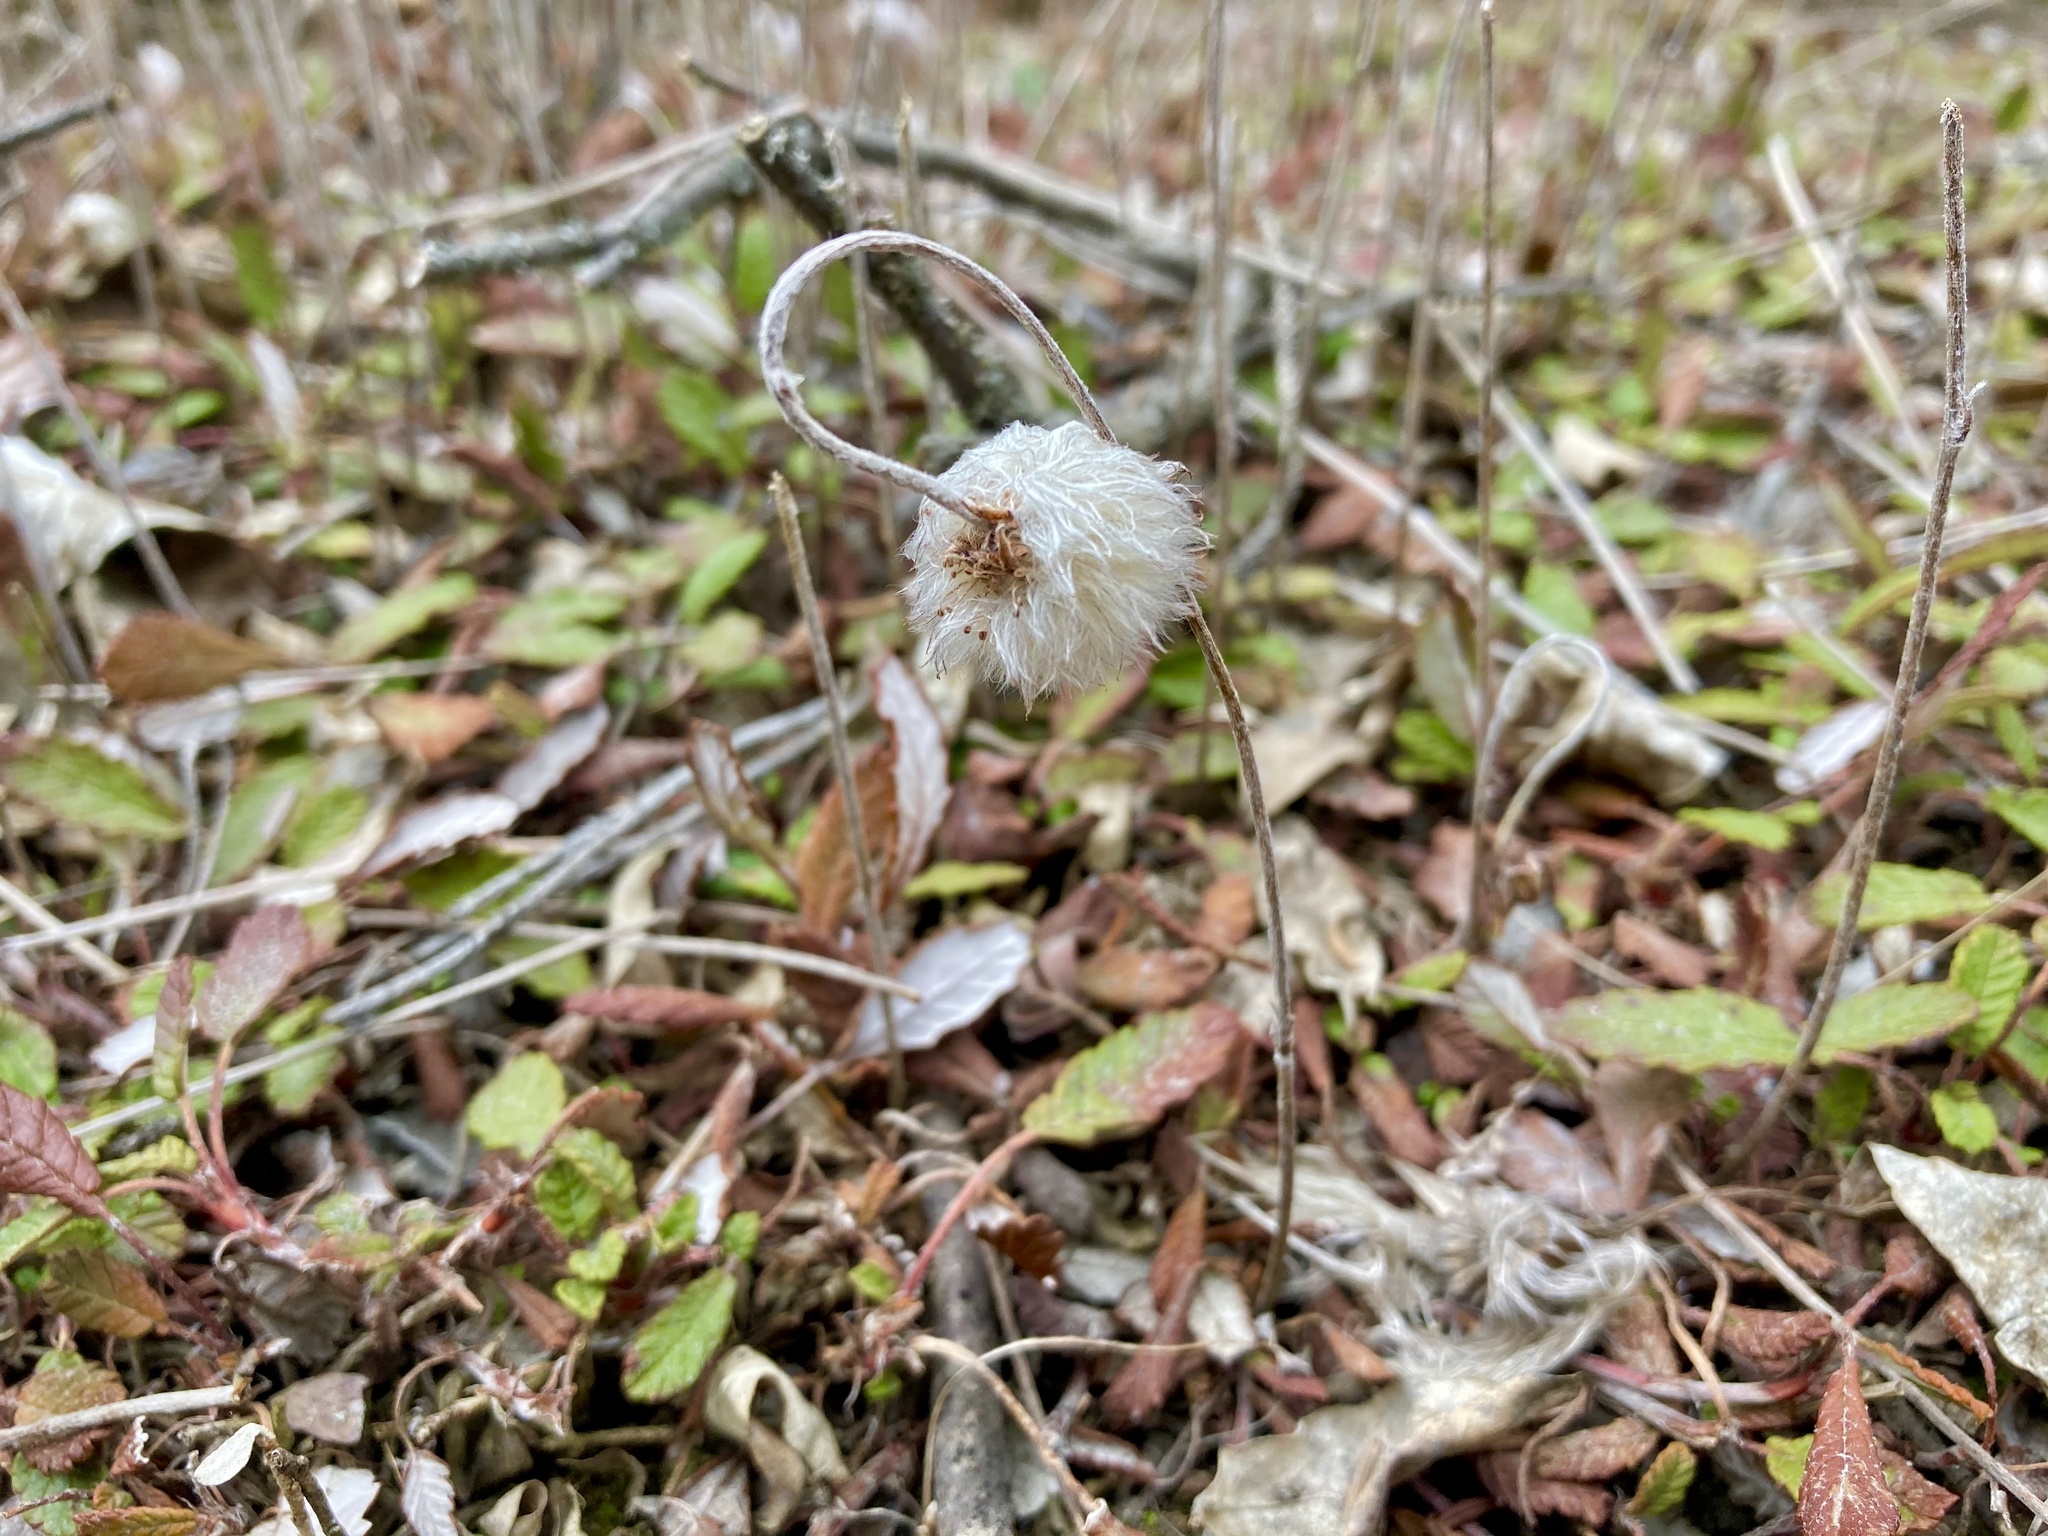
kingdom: Plantae
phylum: Tracheophyta
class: Magnoliopsida
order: Rosales
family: Rosaceae
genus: Dryas
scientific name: Dryas drummondii
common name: Drummond's dryad
